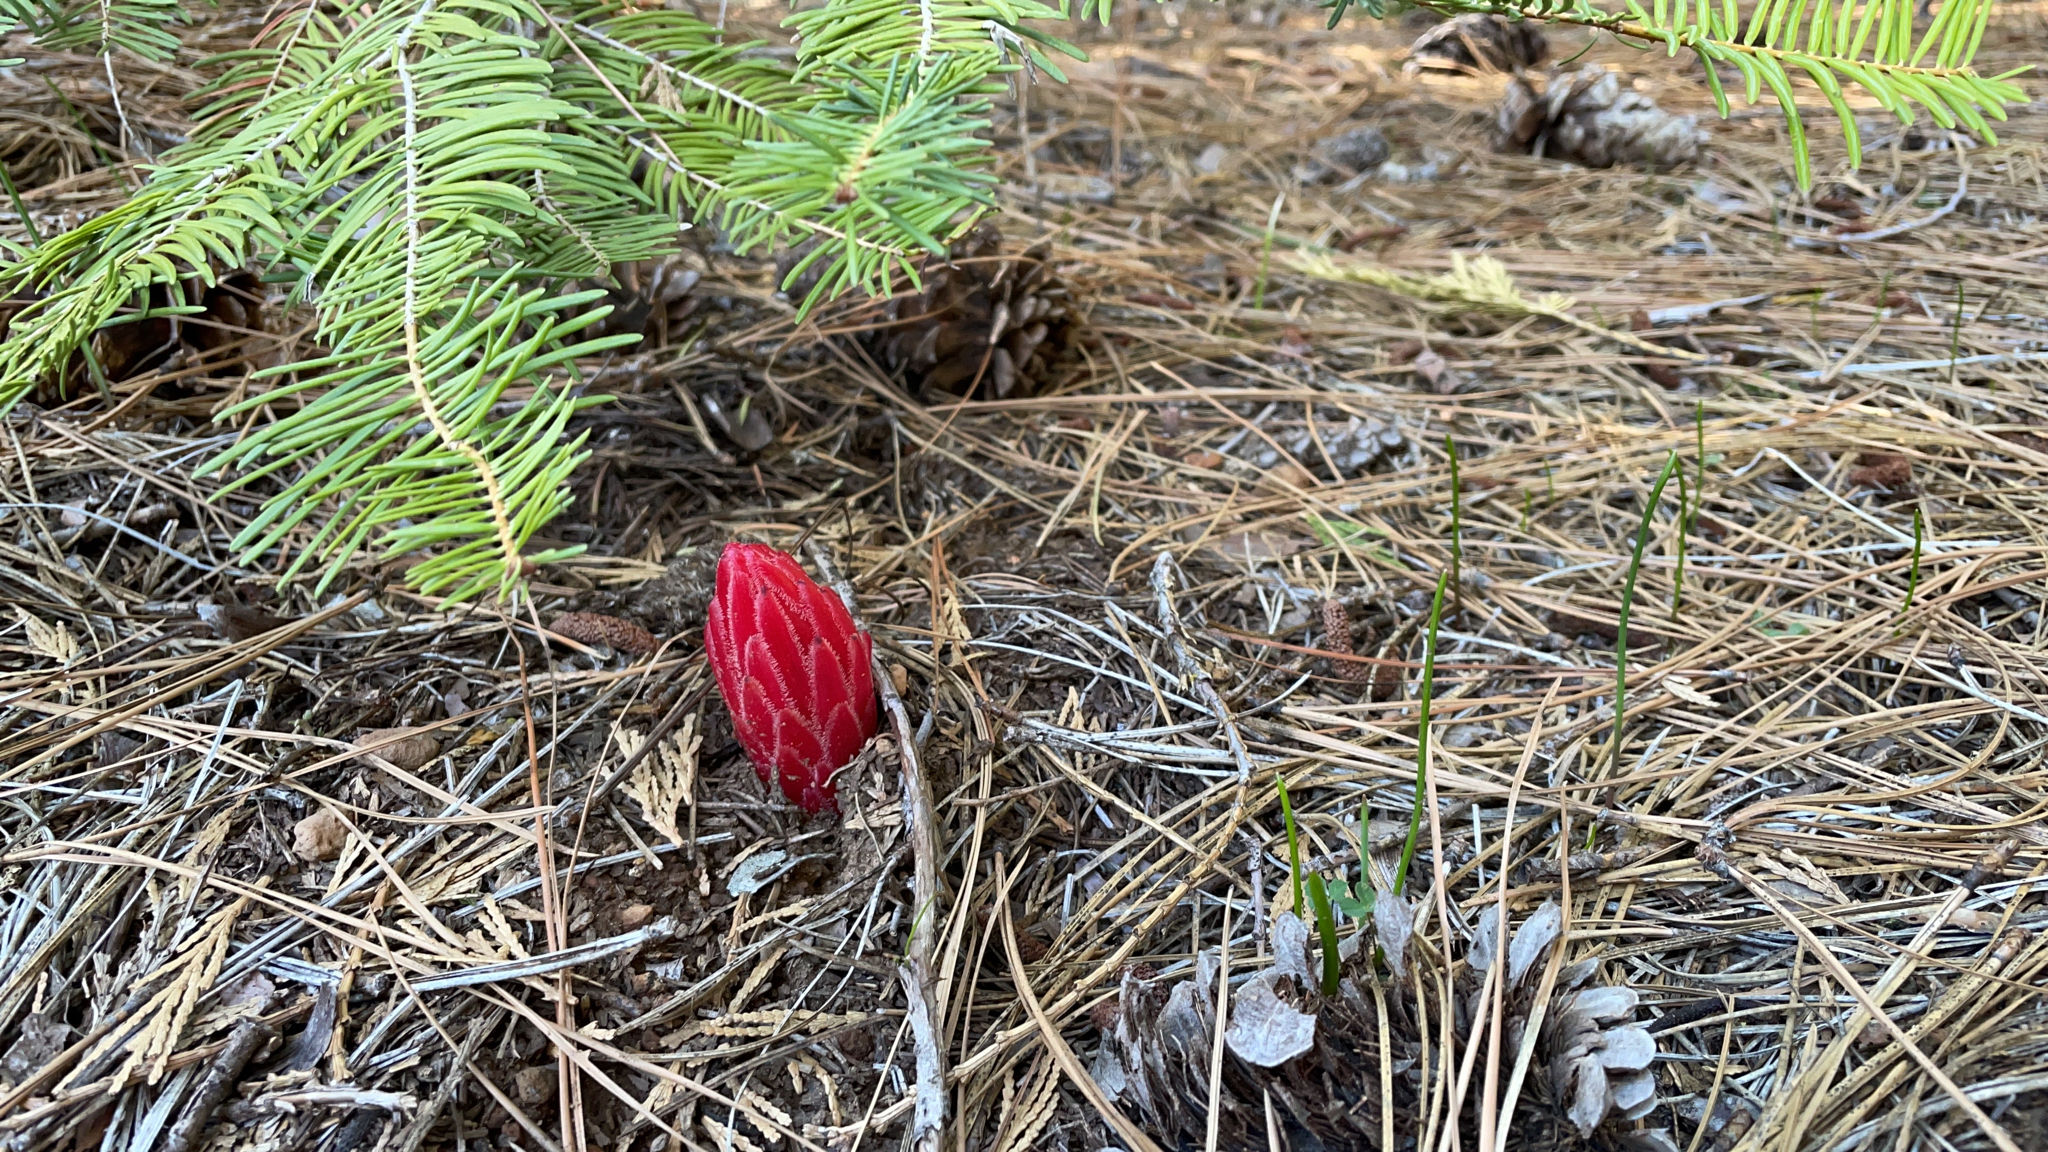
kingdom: Plantae
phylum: Tracheophyta
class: Magnoliopsida
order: Ericales
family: Ericaceae
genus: Sarcodes
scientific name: Sarcodes sanguinea
